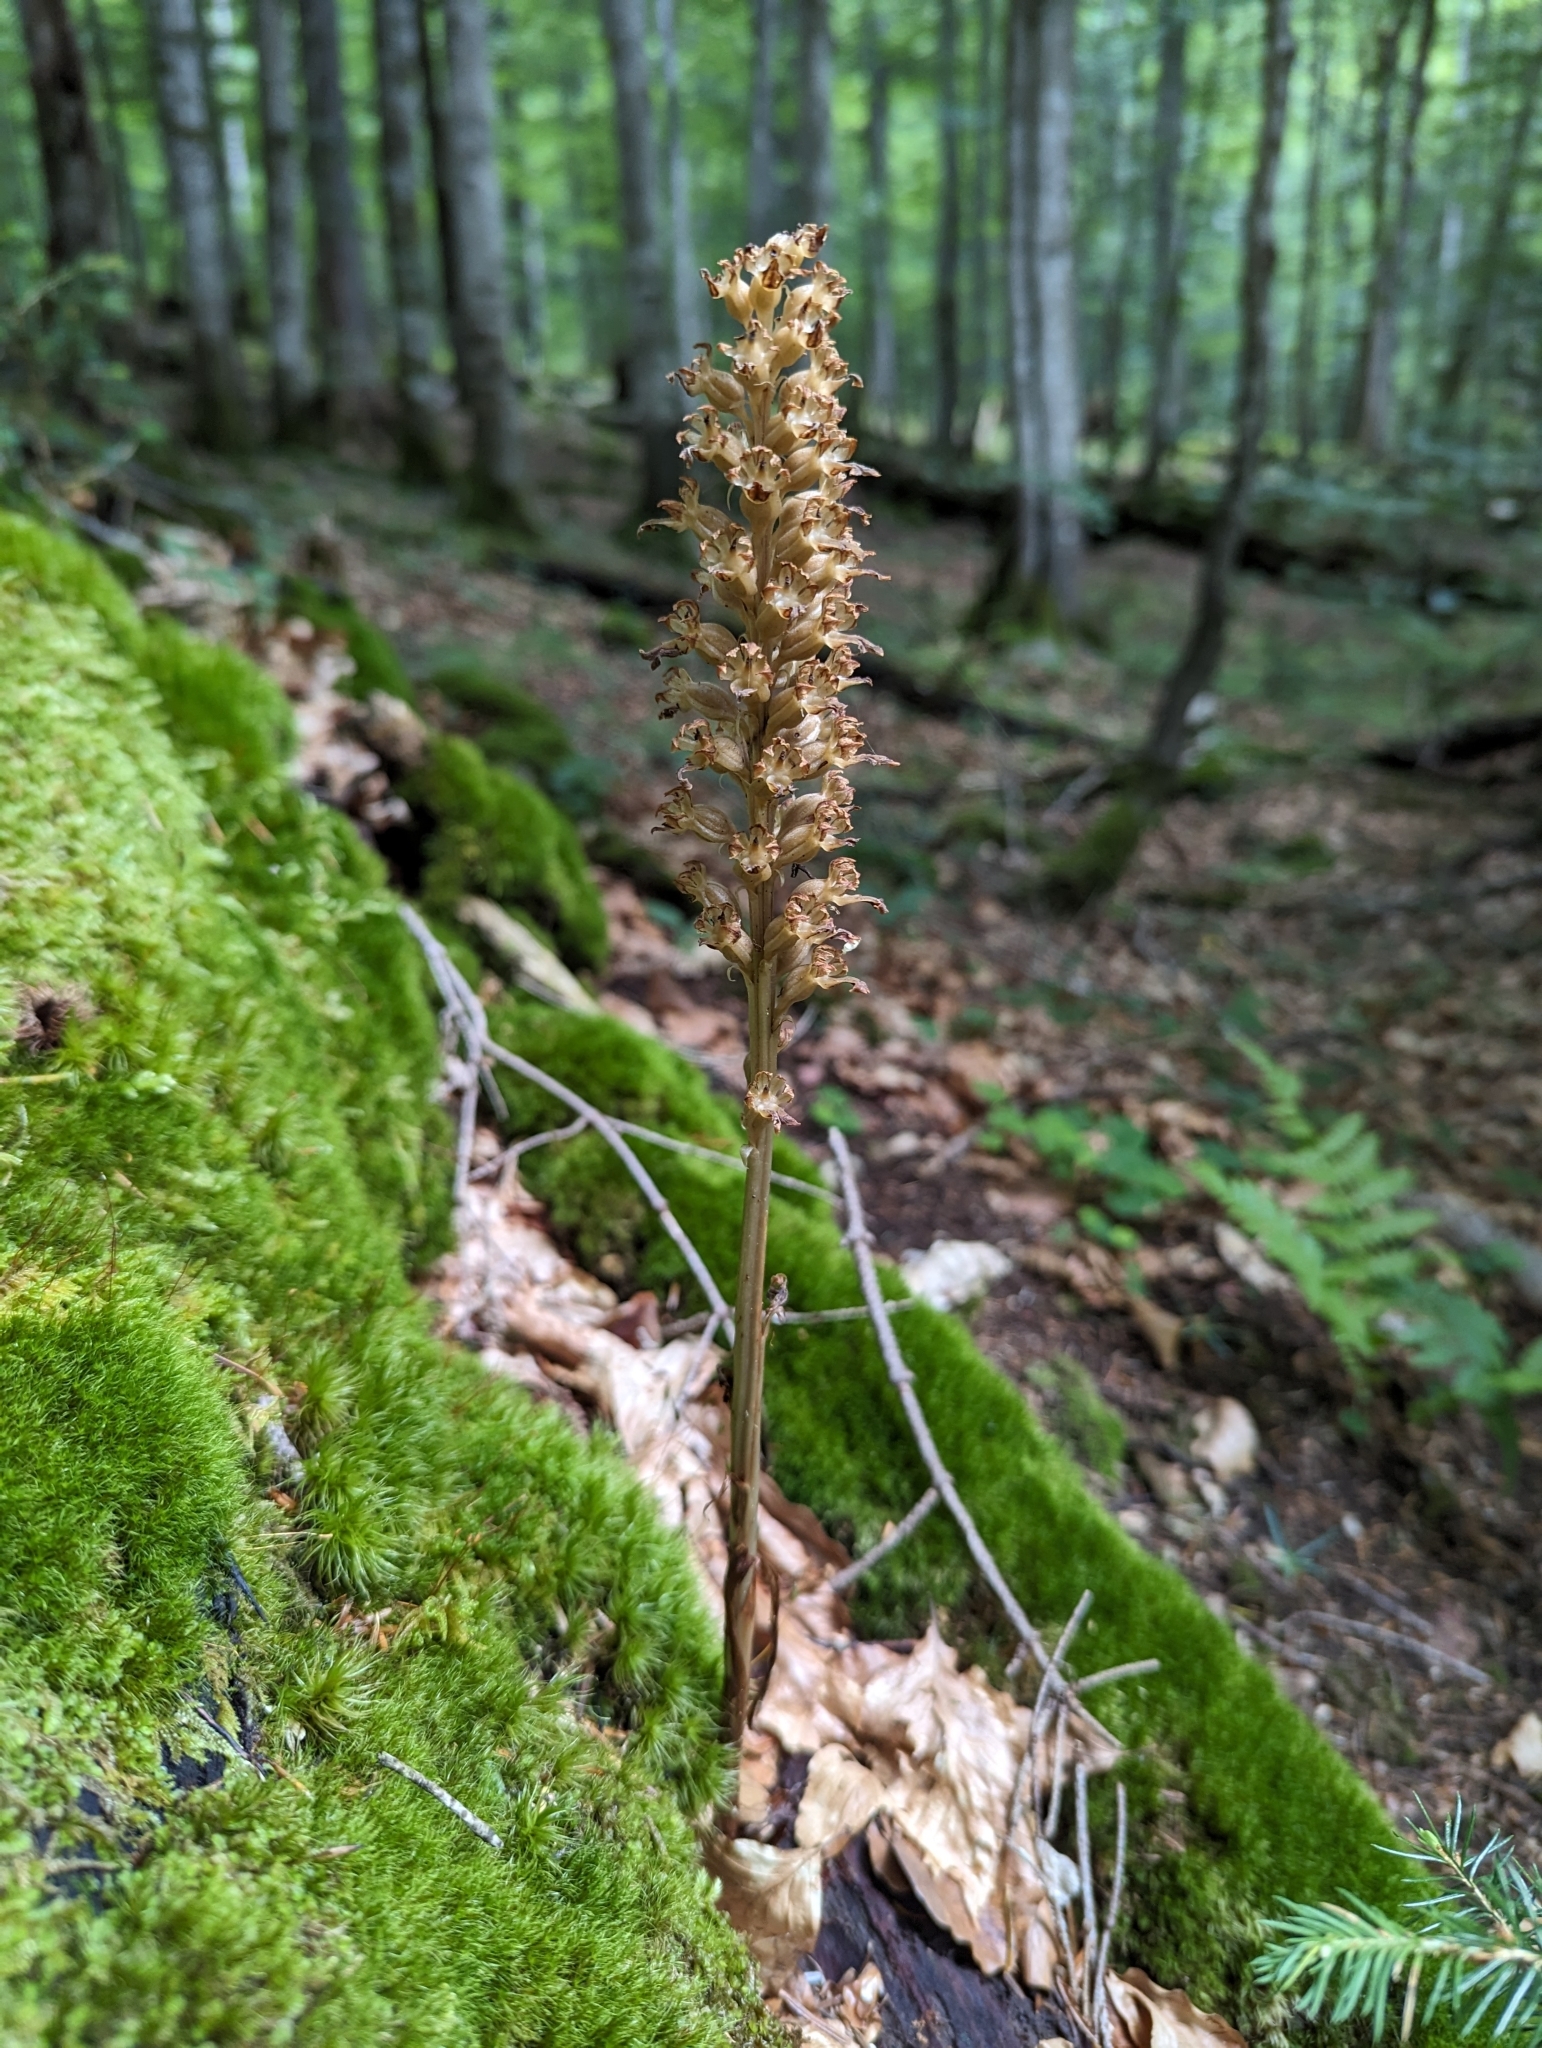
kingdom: Plantae
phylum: Tracheophyta
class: Liliopsida
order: Asparagales
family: Orchidaceae
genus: Neottia
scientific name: Neottia nidus-avis
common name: Bird's-nest orchid
